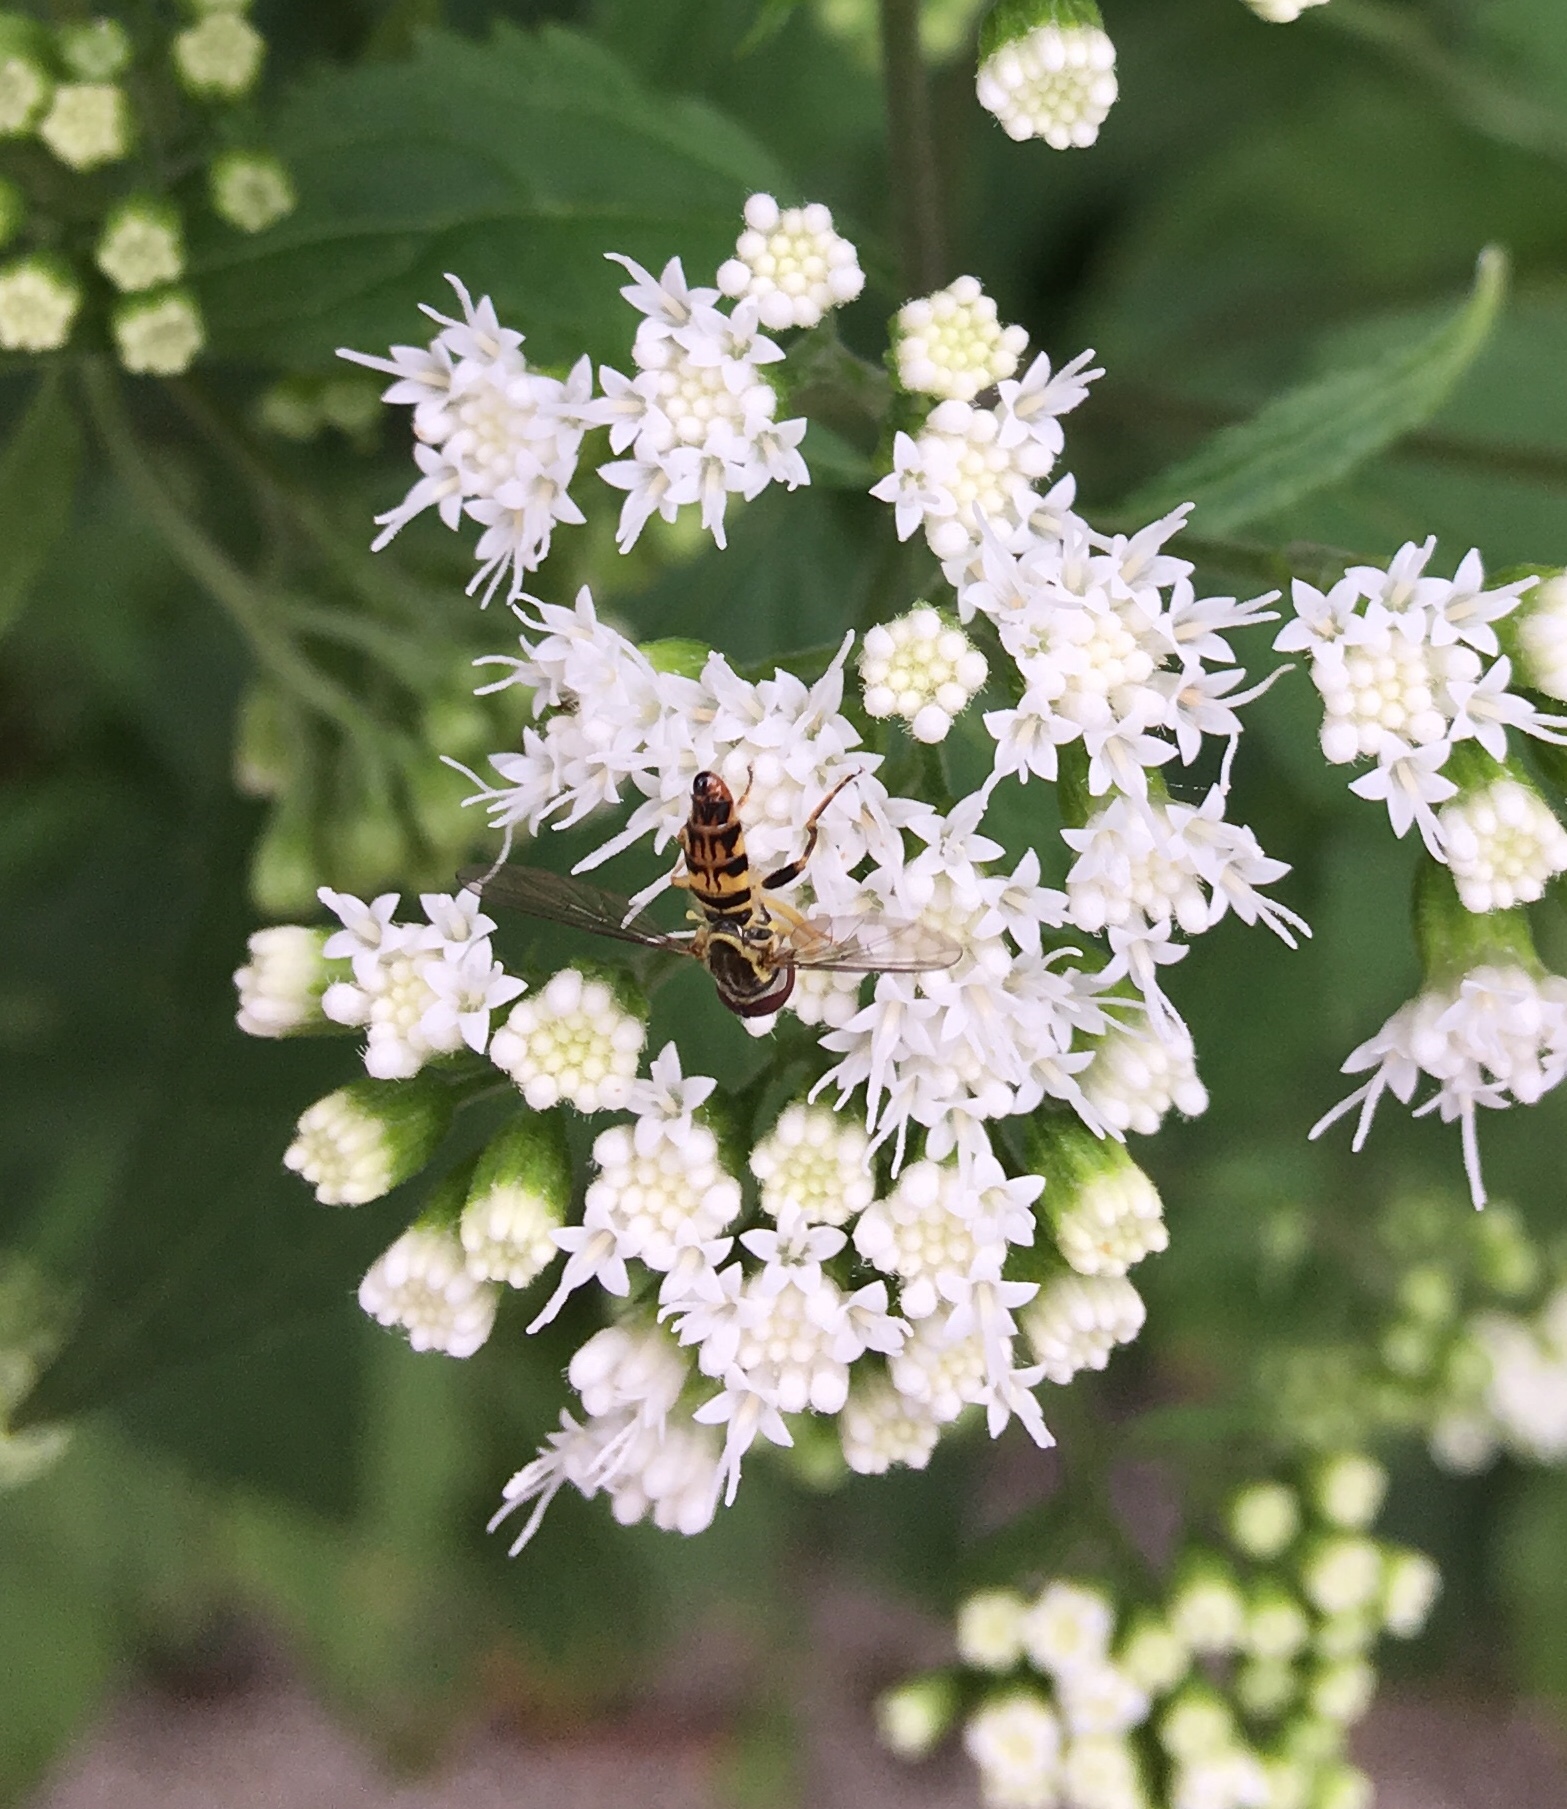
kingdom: Animalia
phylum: Arthropoda
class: Insecta
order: Diptera
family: Syrphidae
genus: Toxomerus
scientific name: Toxomerus geminatus
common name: Eastern calligrapher
